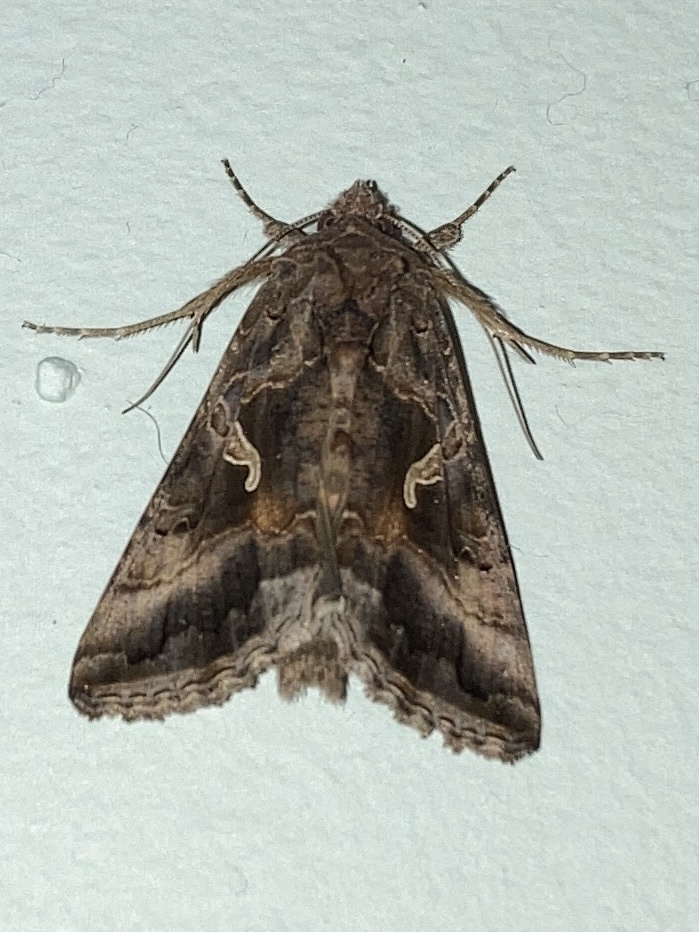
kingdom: Animalia
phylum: Arthropoda
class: Insecta
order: Lepidoptera
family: Noctuidae
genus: Autographa
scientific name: Autographa gamma
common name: Silver y
